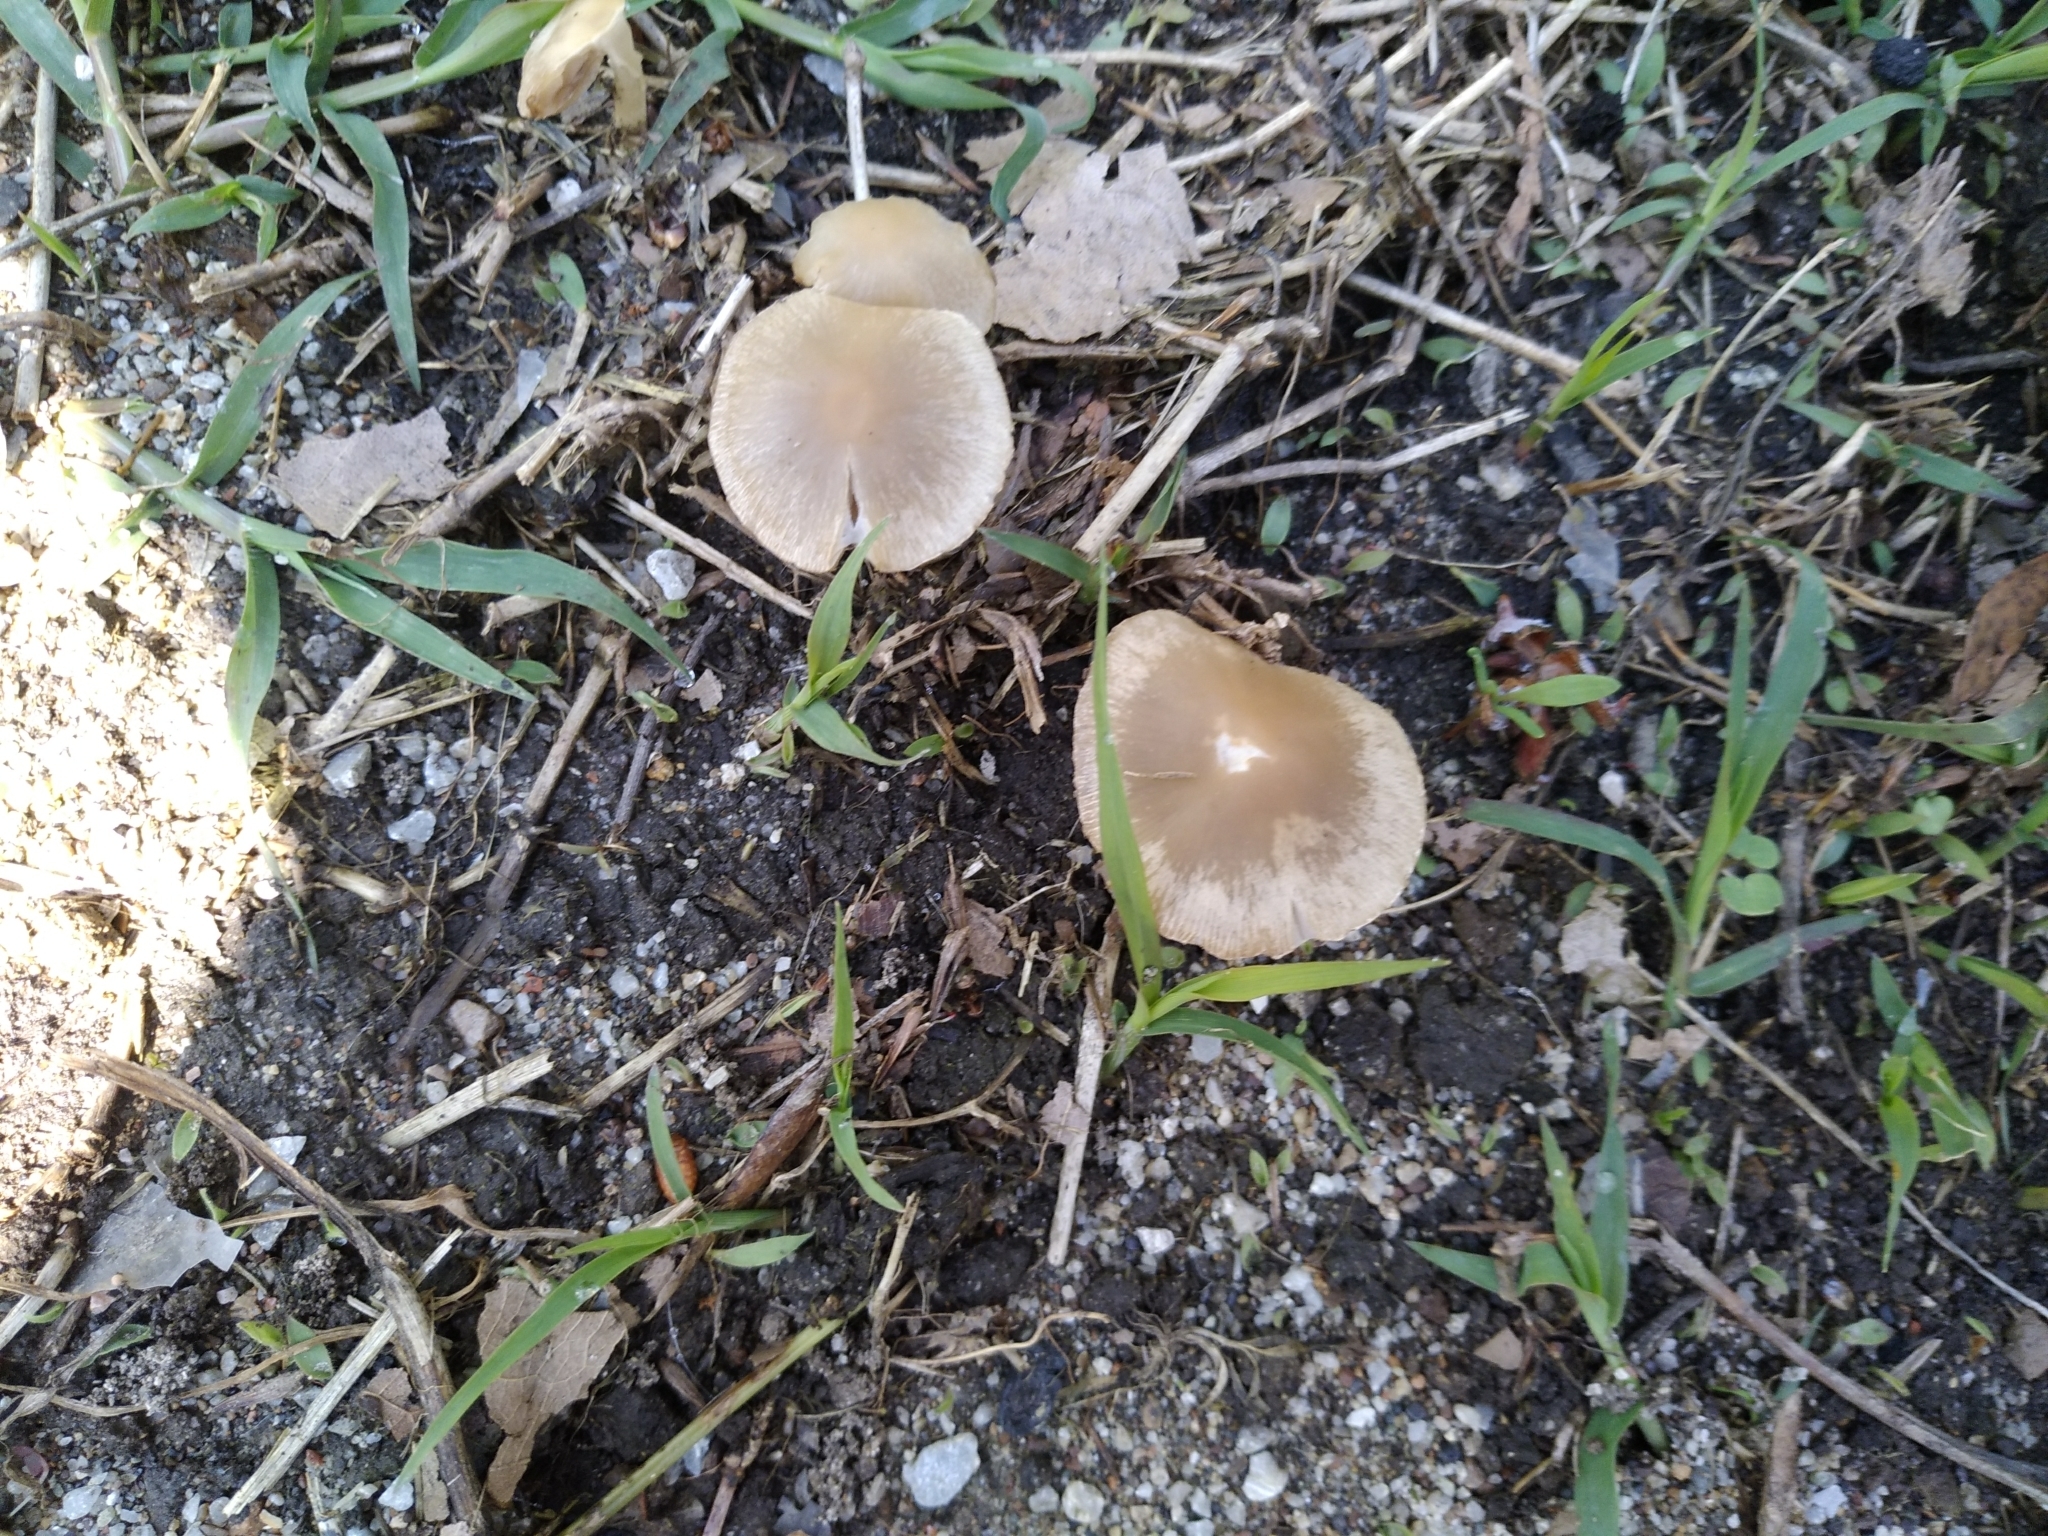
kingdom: Fungi
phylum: Basidiomycota
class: Agaricomycetes
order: Agaricales
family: Psathyrellaceae
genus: Candolleomyces
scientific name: Candolleomyces candolleanus
